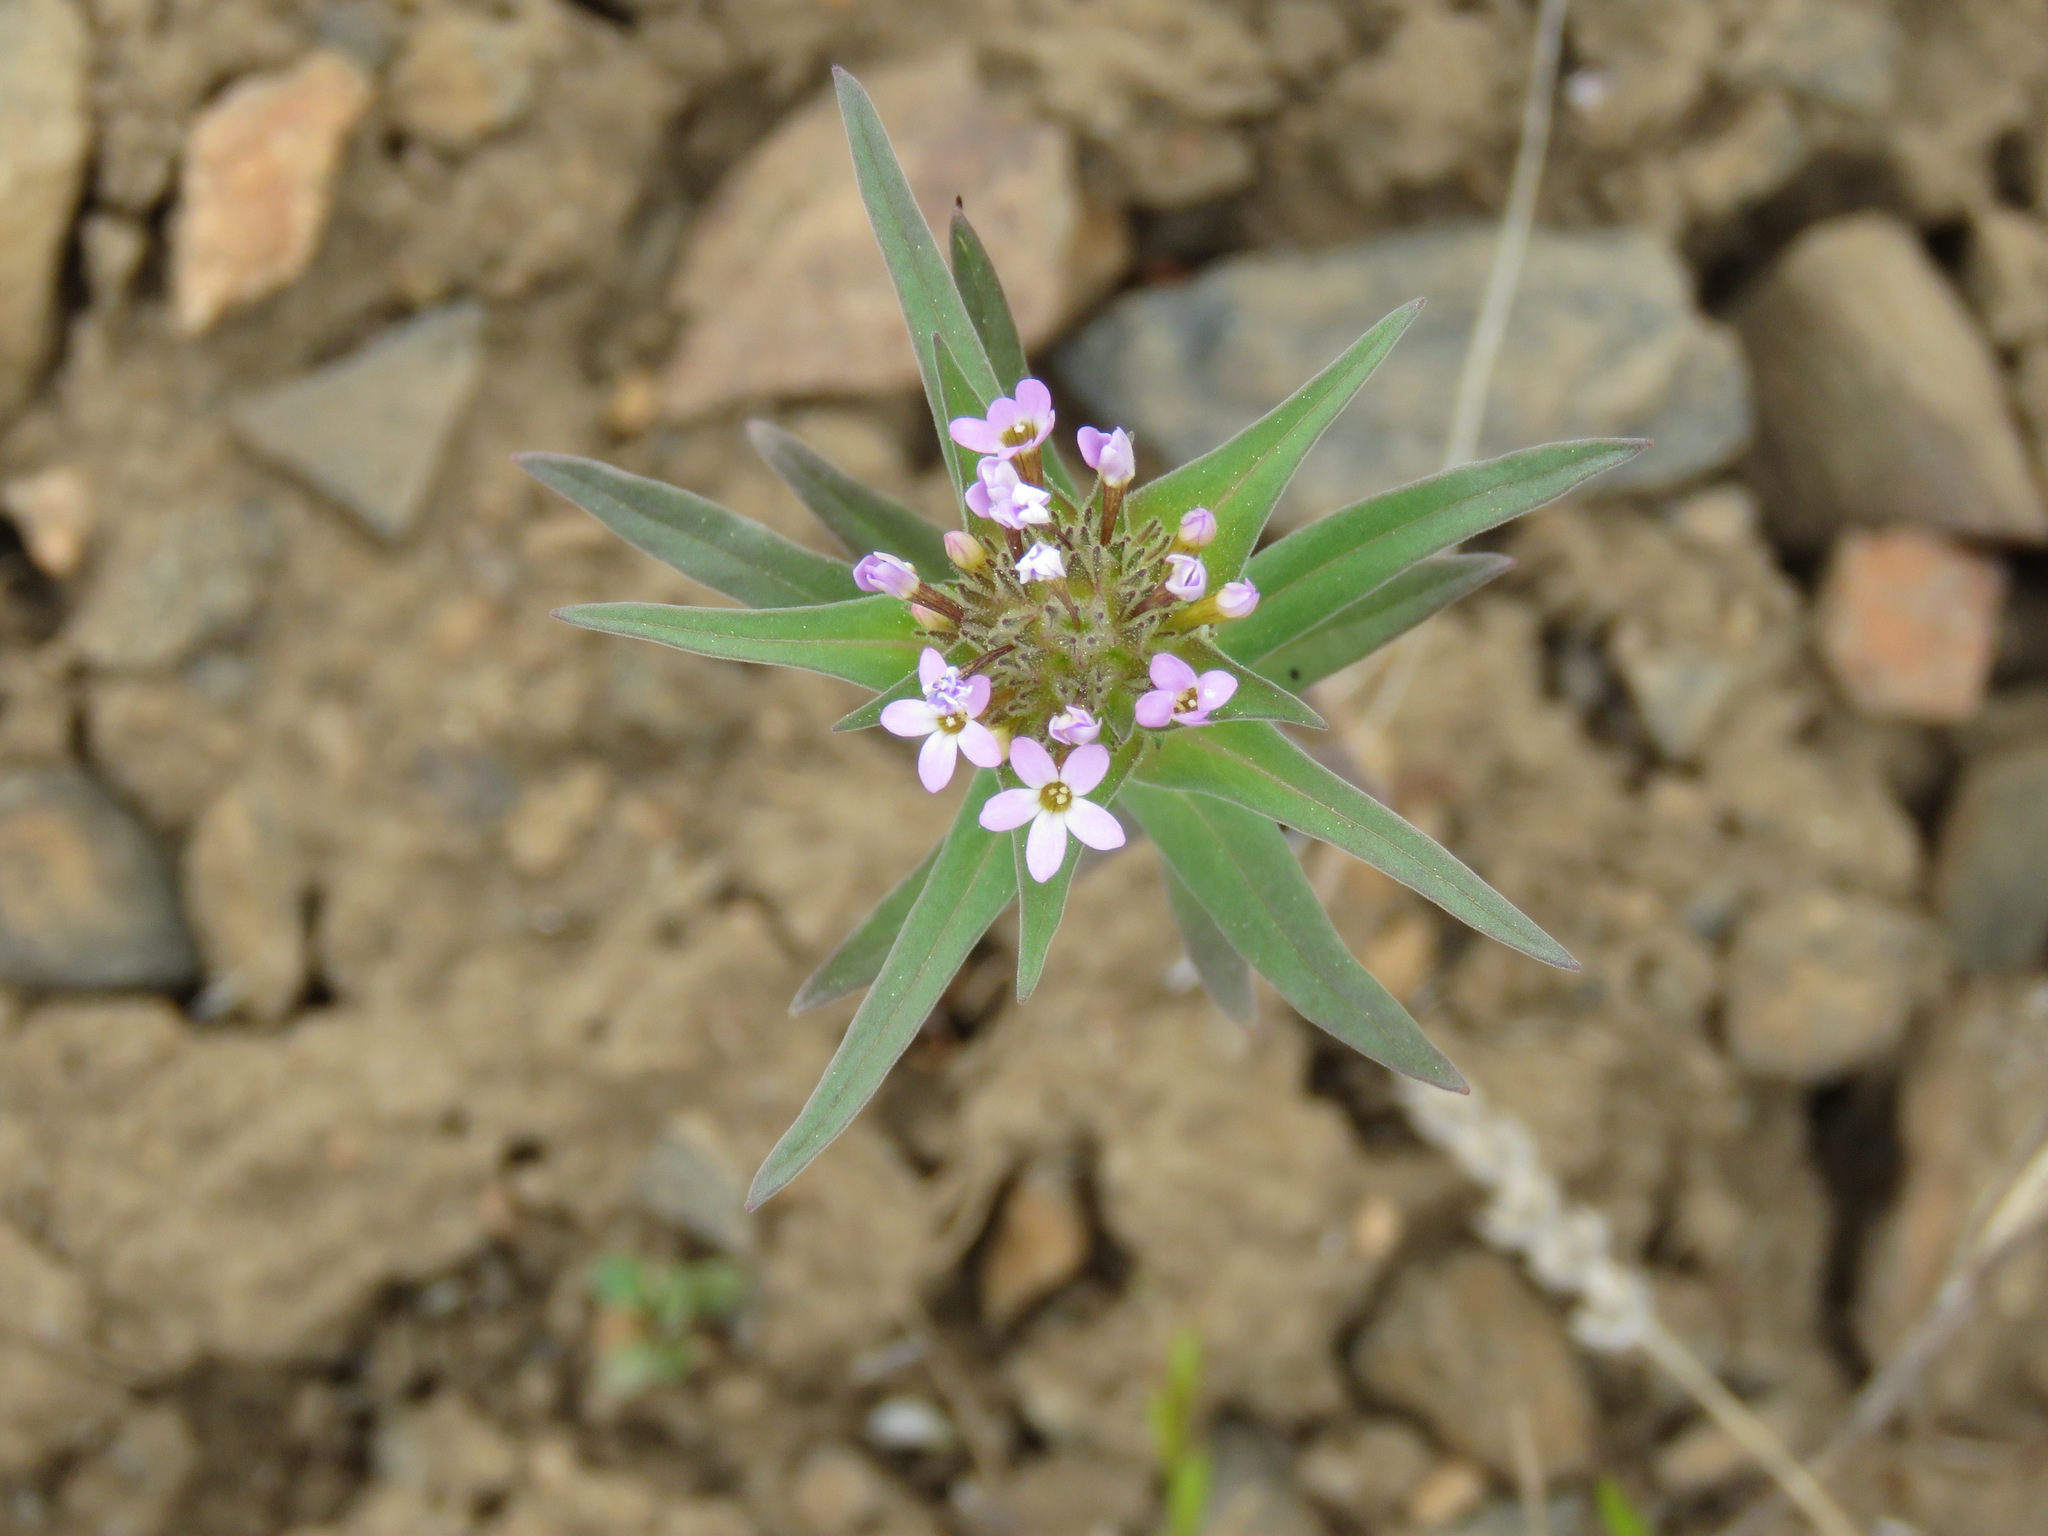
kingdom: Plantae
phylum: Tracheophyta
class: Magnoliopsida
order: Ericales
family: Polemoniaceae
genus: Collomia
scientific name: Collomia linearis
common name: Tiny trumpet
